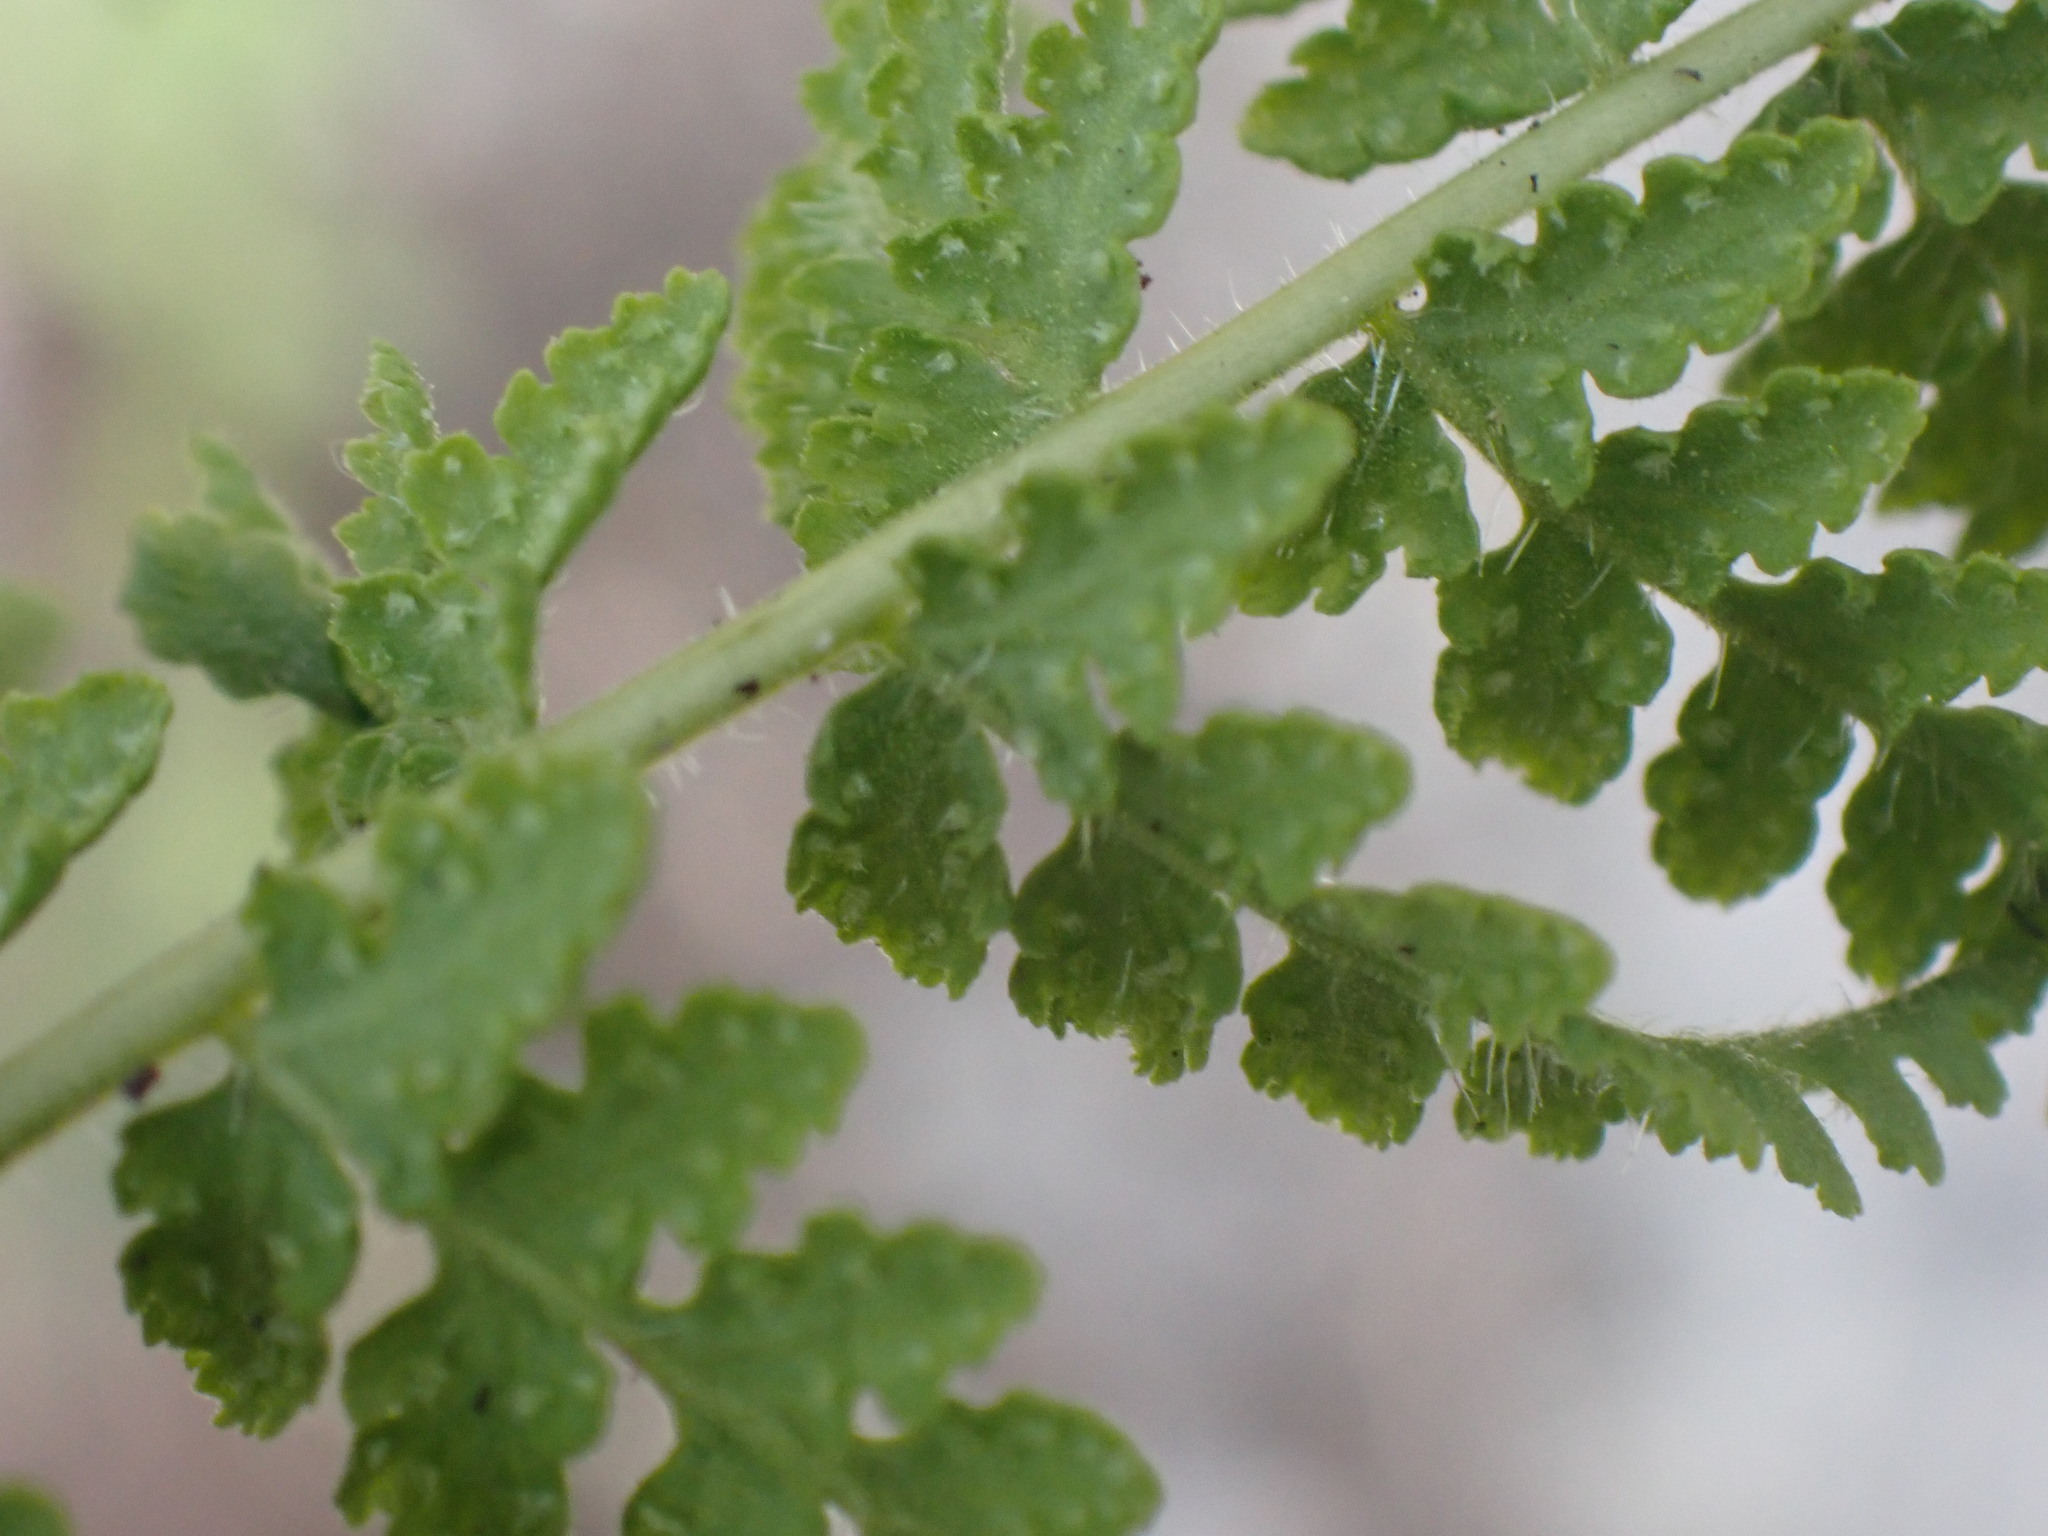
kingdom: Plantae
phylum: Tracheophyta
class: Polypodiopsida
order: Polypodiales
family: Woodsiaceae
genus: Physematium
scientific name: Physematium scopulinum
